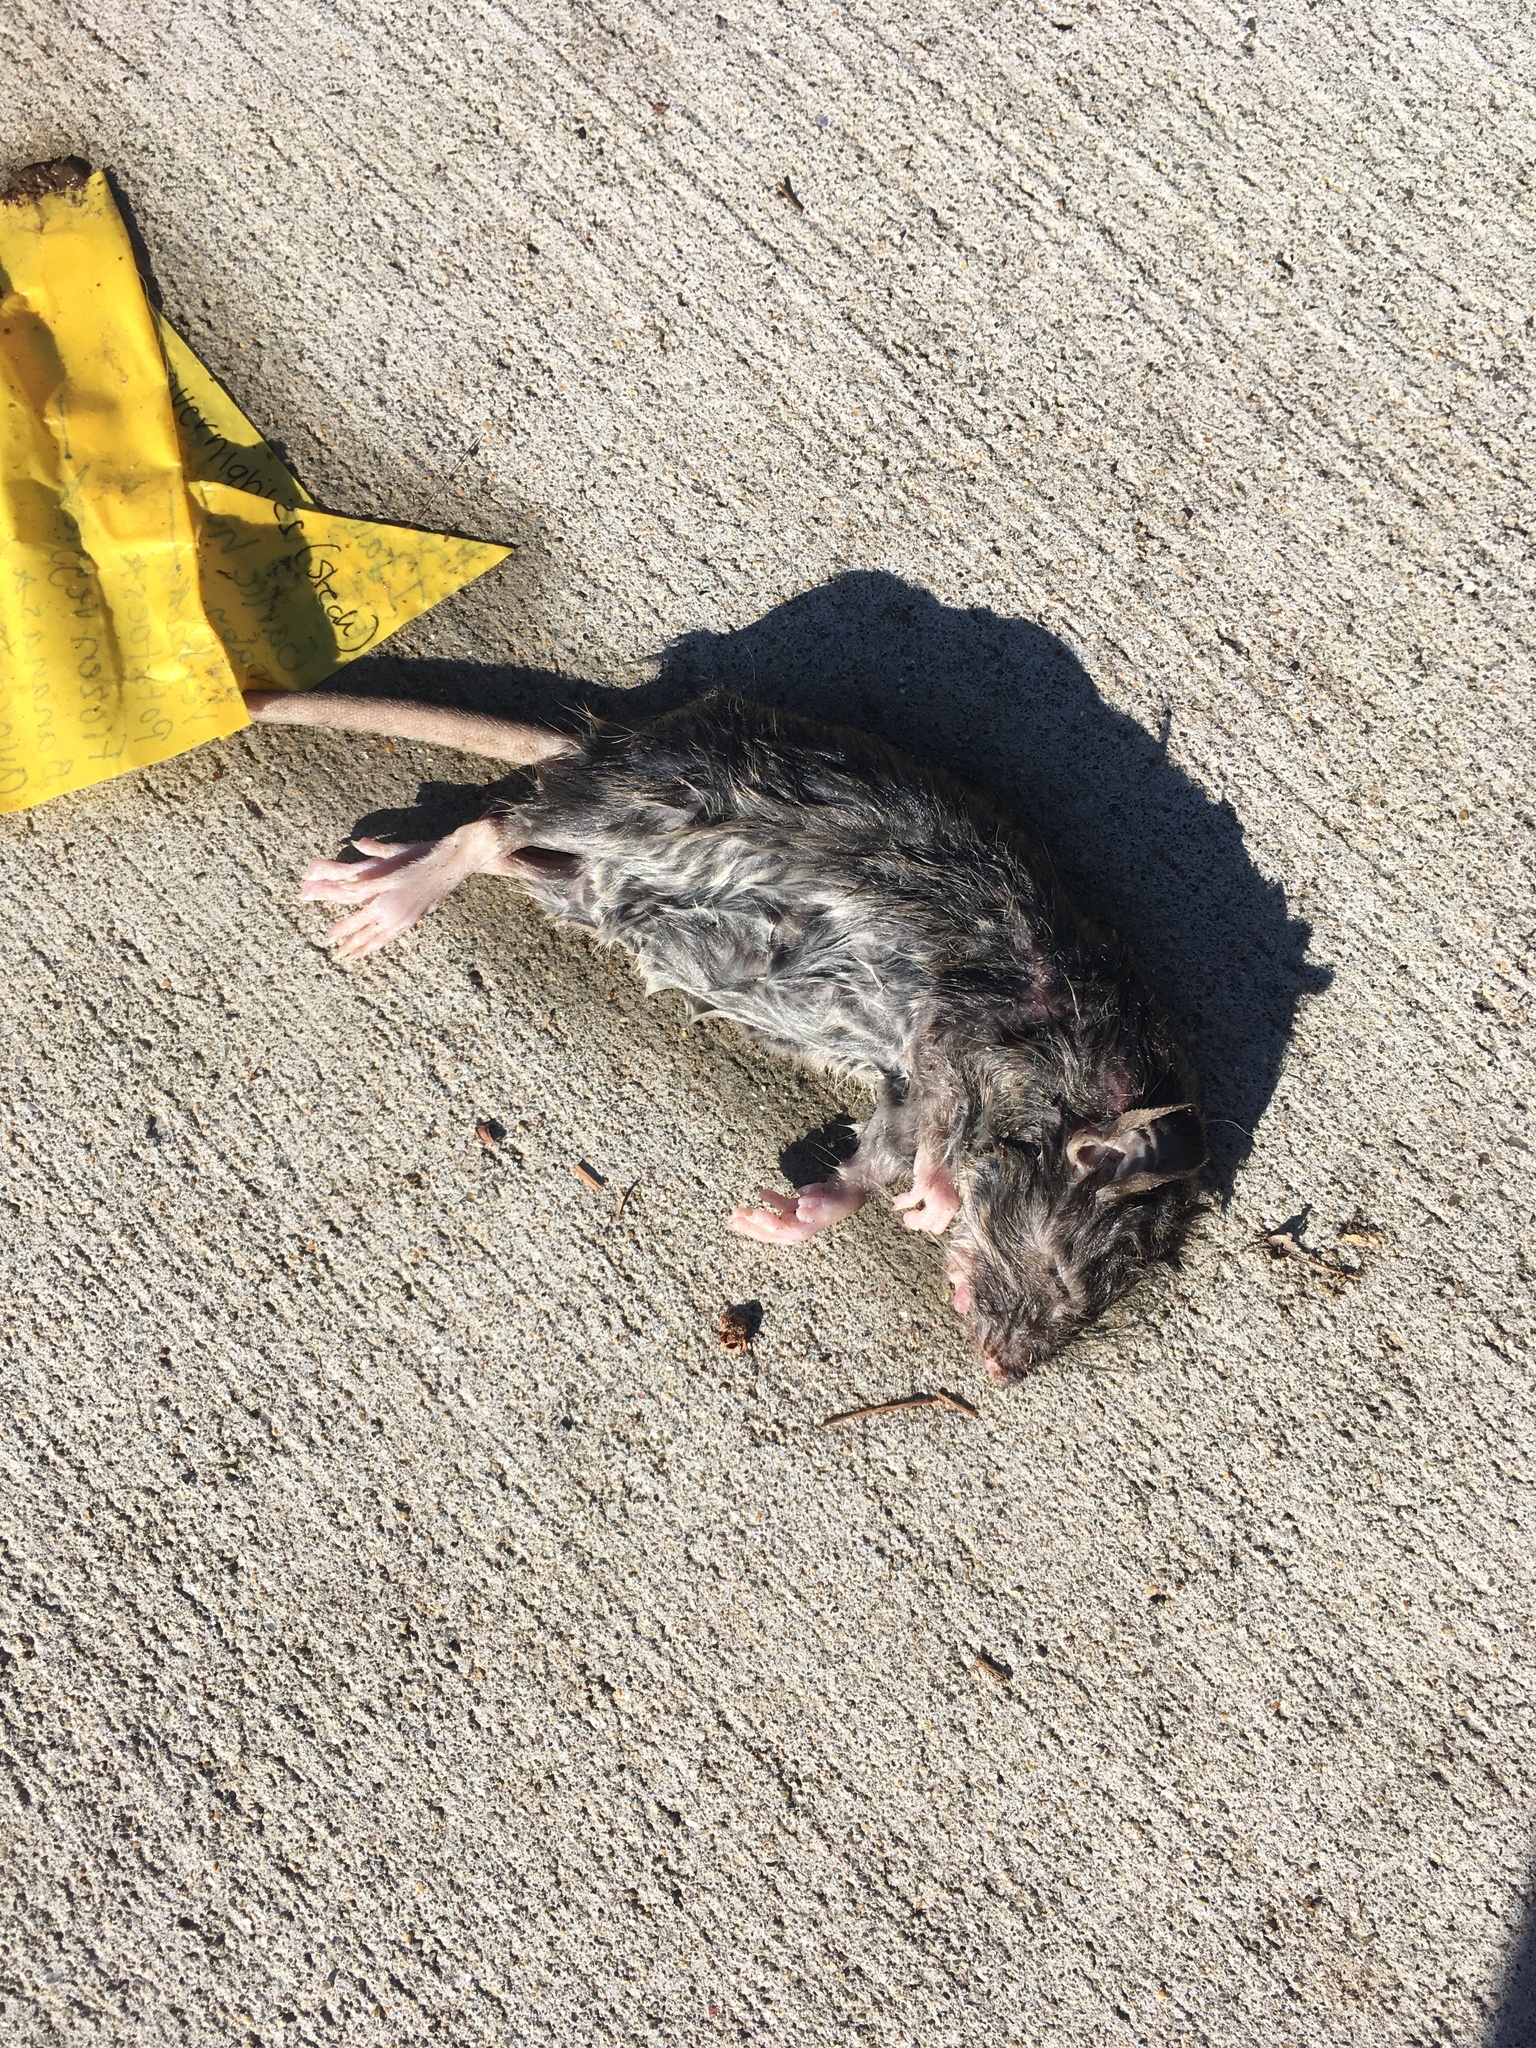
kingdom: Animalia
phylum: Chordata
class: Mammalia
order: Rodentia
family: Muridae
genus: Rattus
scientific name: Rattus norvegicus
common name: Brown rat
